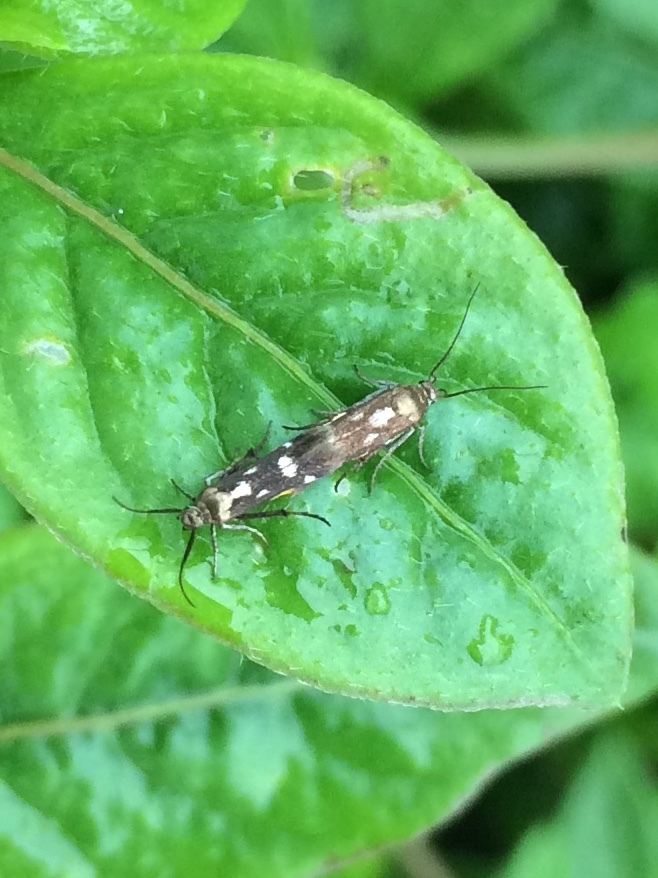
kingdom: Animalia
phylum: Arthropoda
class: Insecta
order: Lepidoptera
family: Scythrididae
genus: Eretmocera
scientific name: Eretmocera impactella
